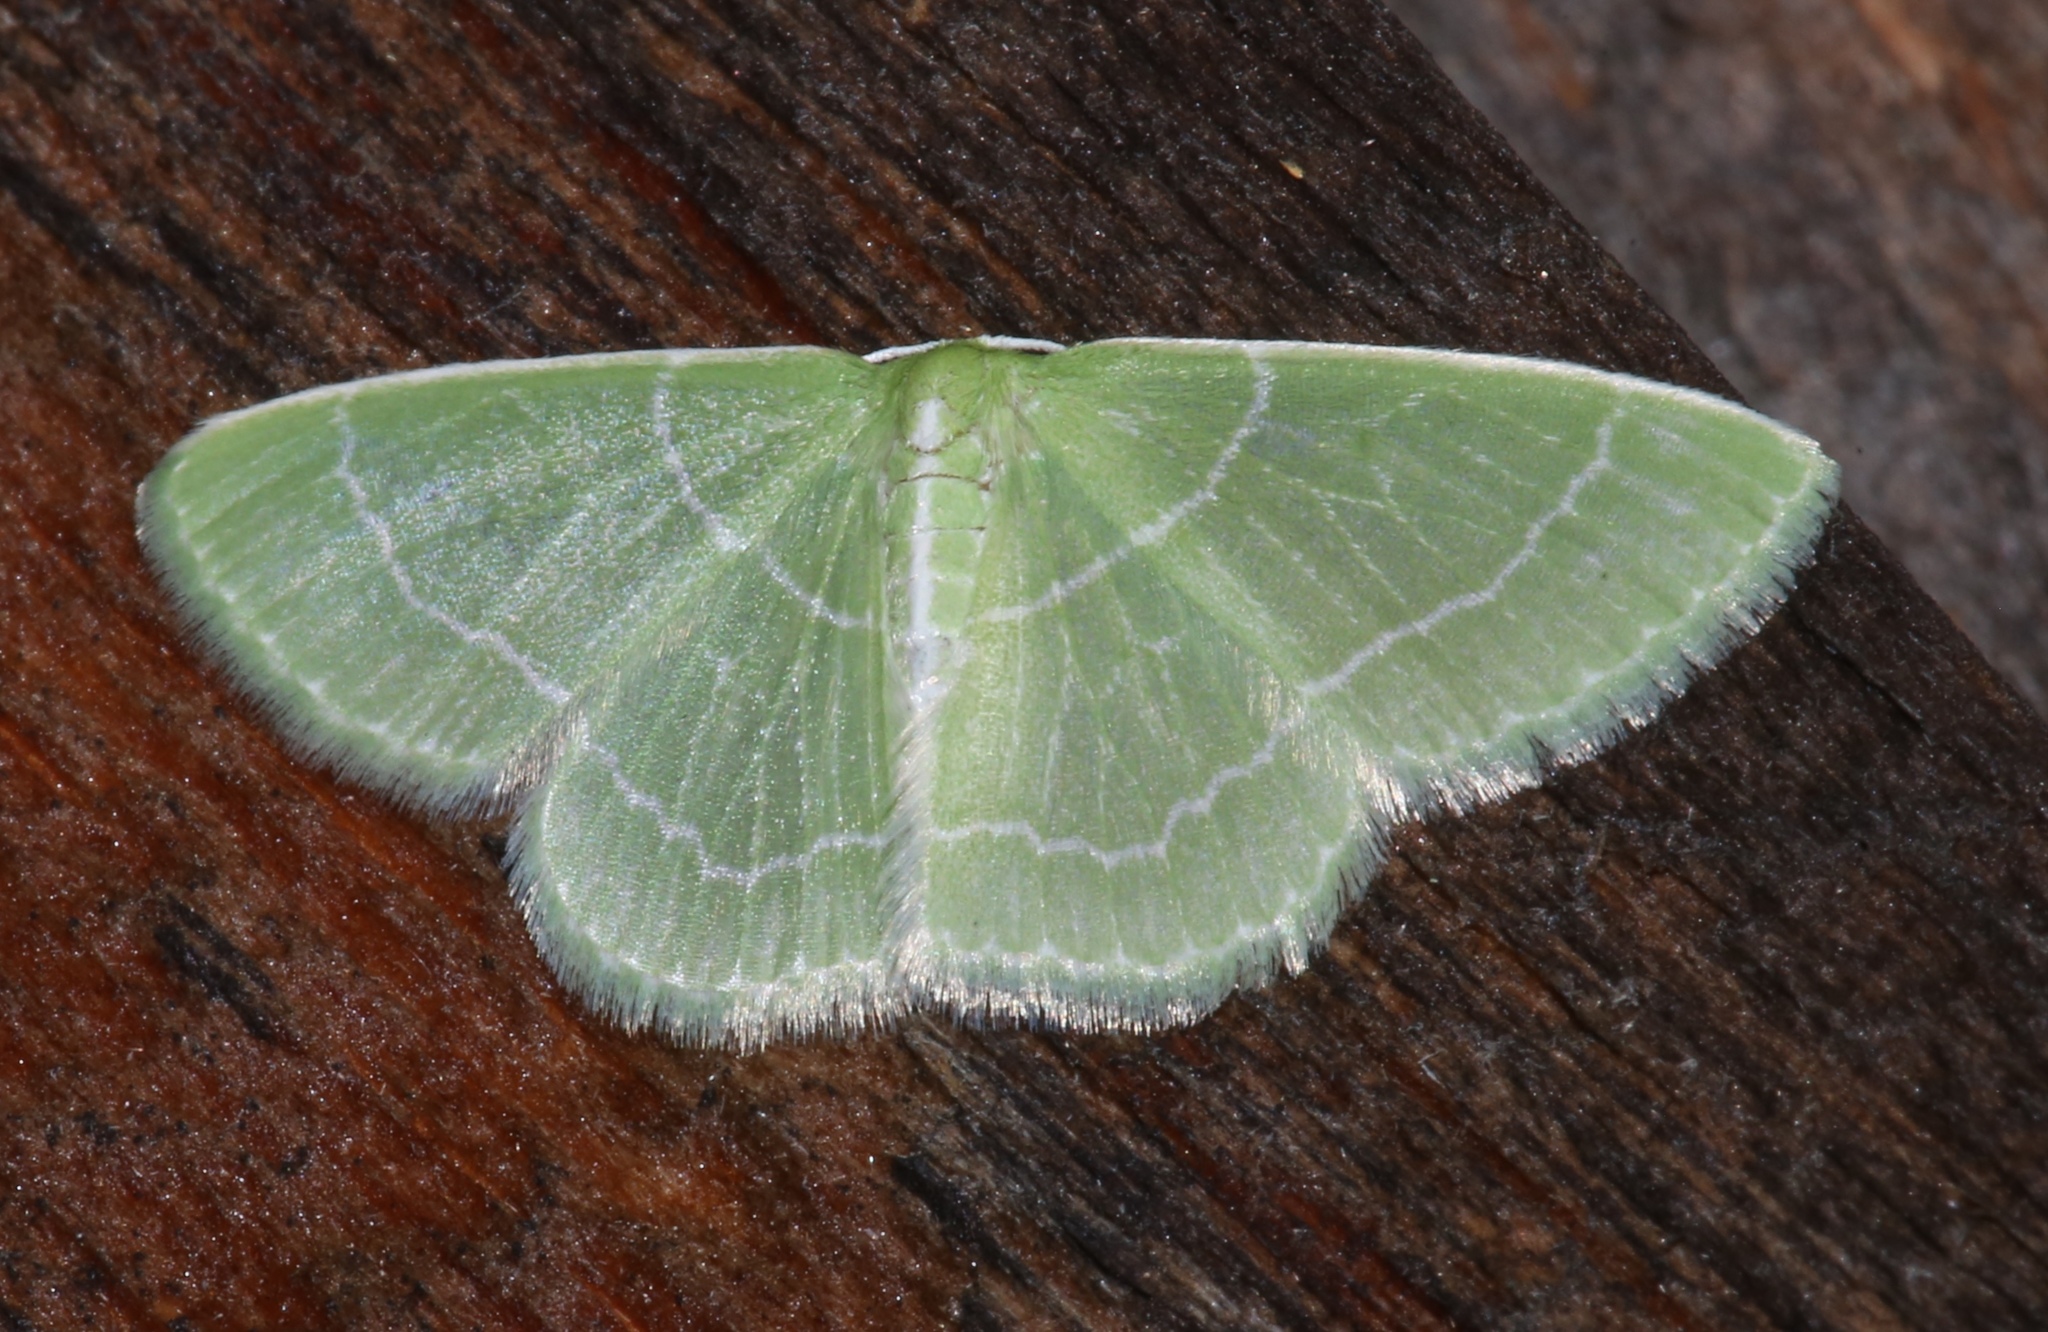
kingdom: Animalia
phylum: Arthropoda
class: Insecta
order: Lepidoptera
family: Geometridae
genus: Synchlora
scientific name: Synchlora aerata
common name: Wavy-lined emerald
